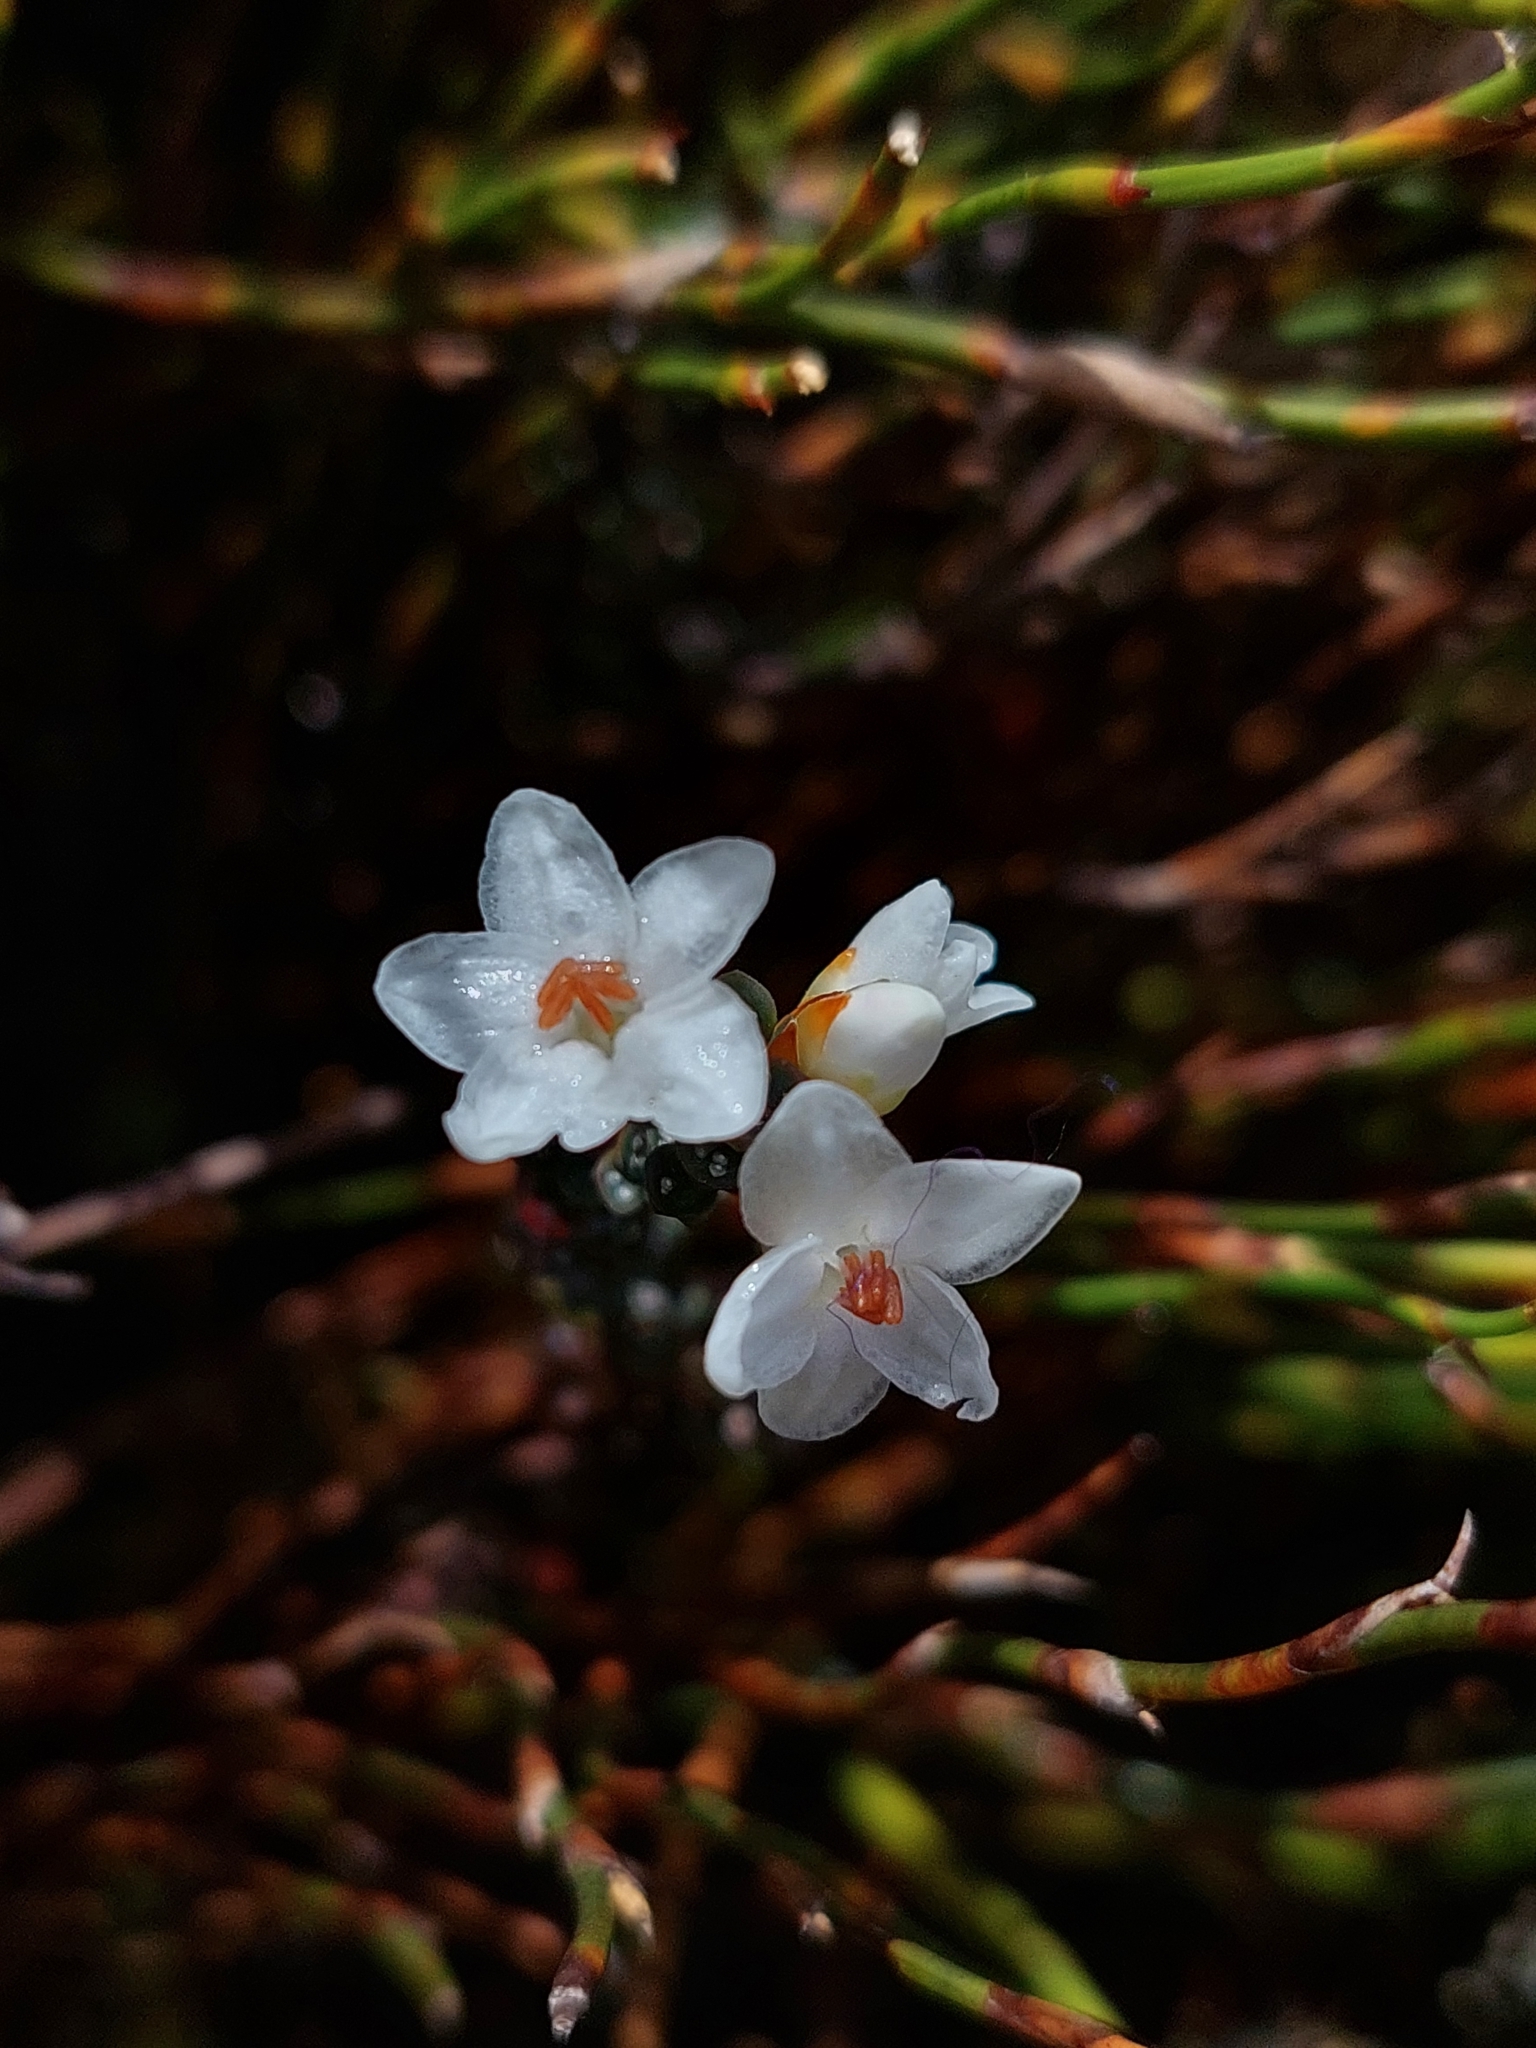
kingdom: Plantae
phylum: Tracheophyta
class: Magnoliopsida
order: Ericales
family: Ericaceae
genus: Epacris
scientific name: Epacris glacialis
